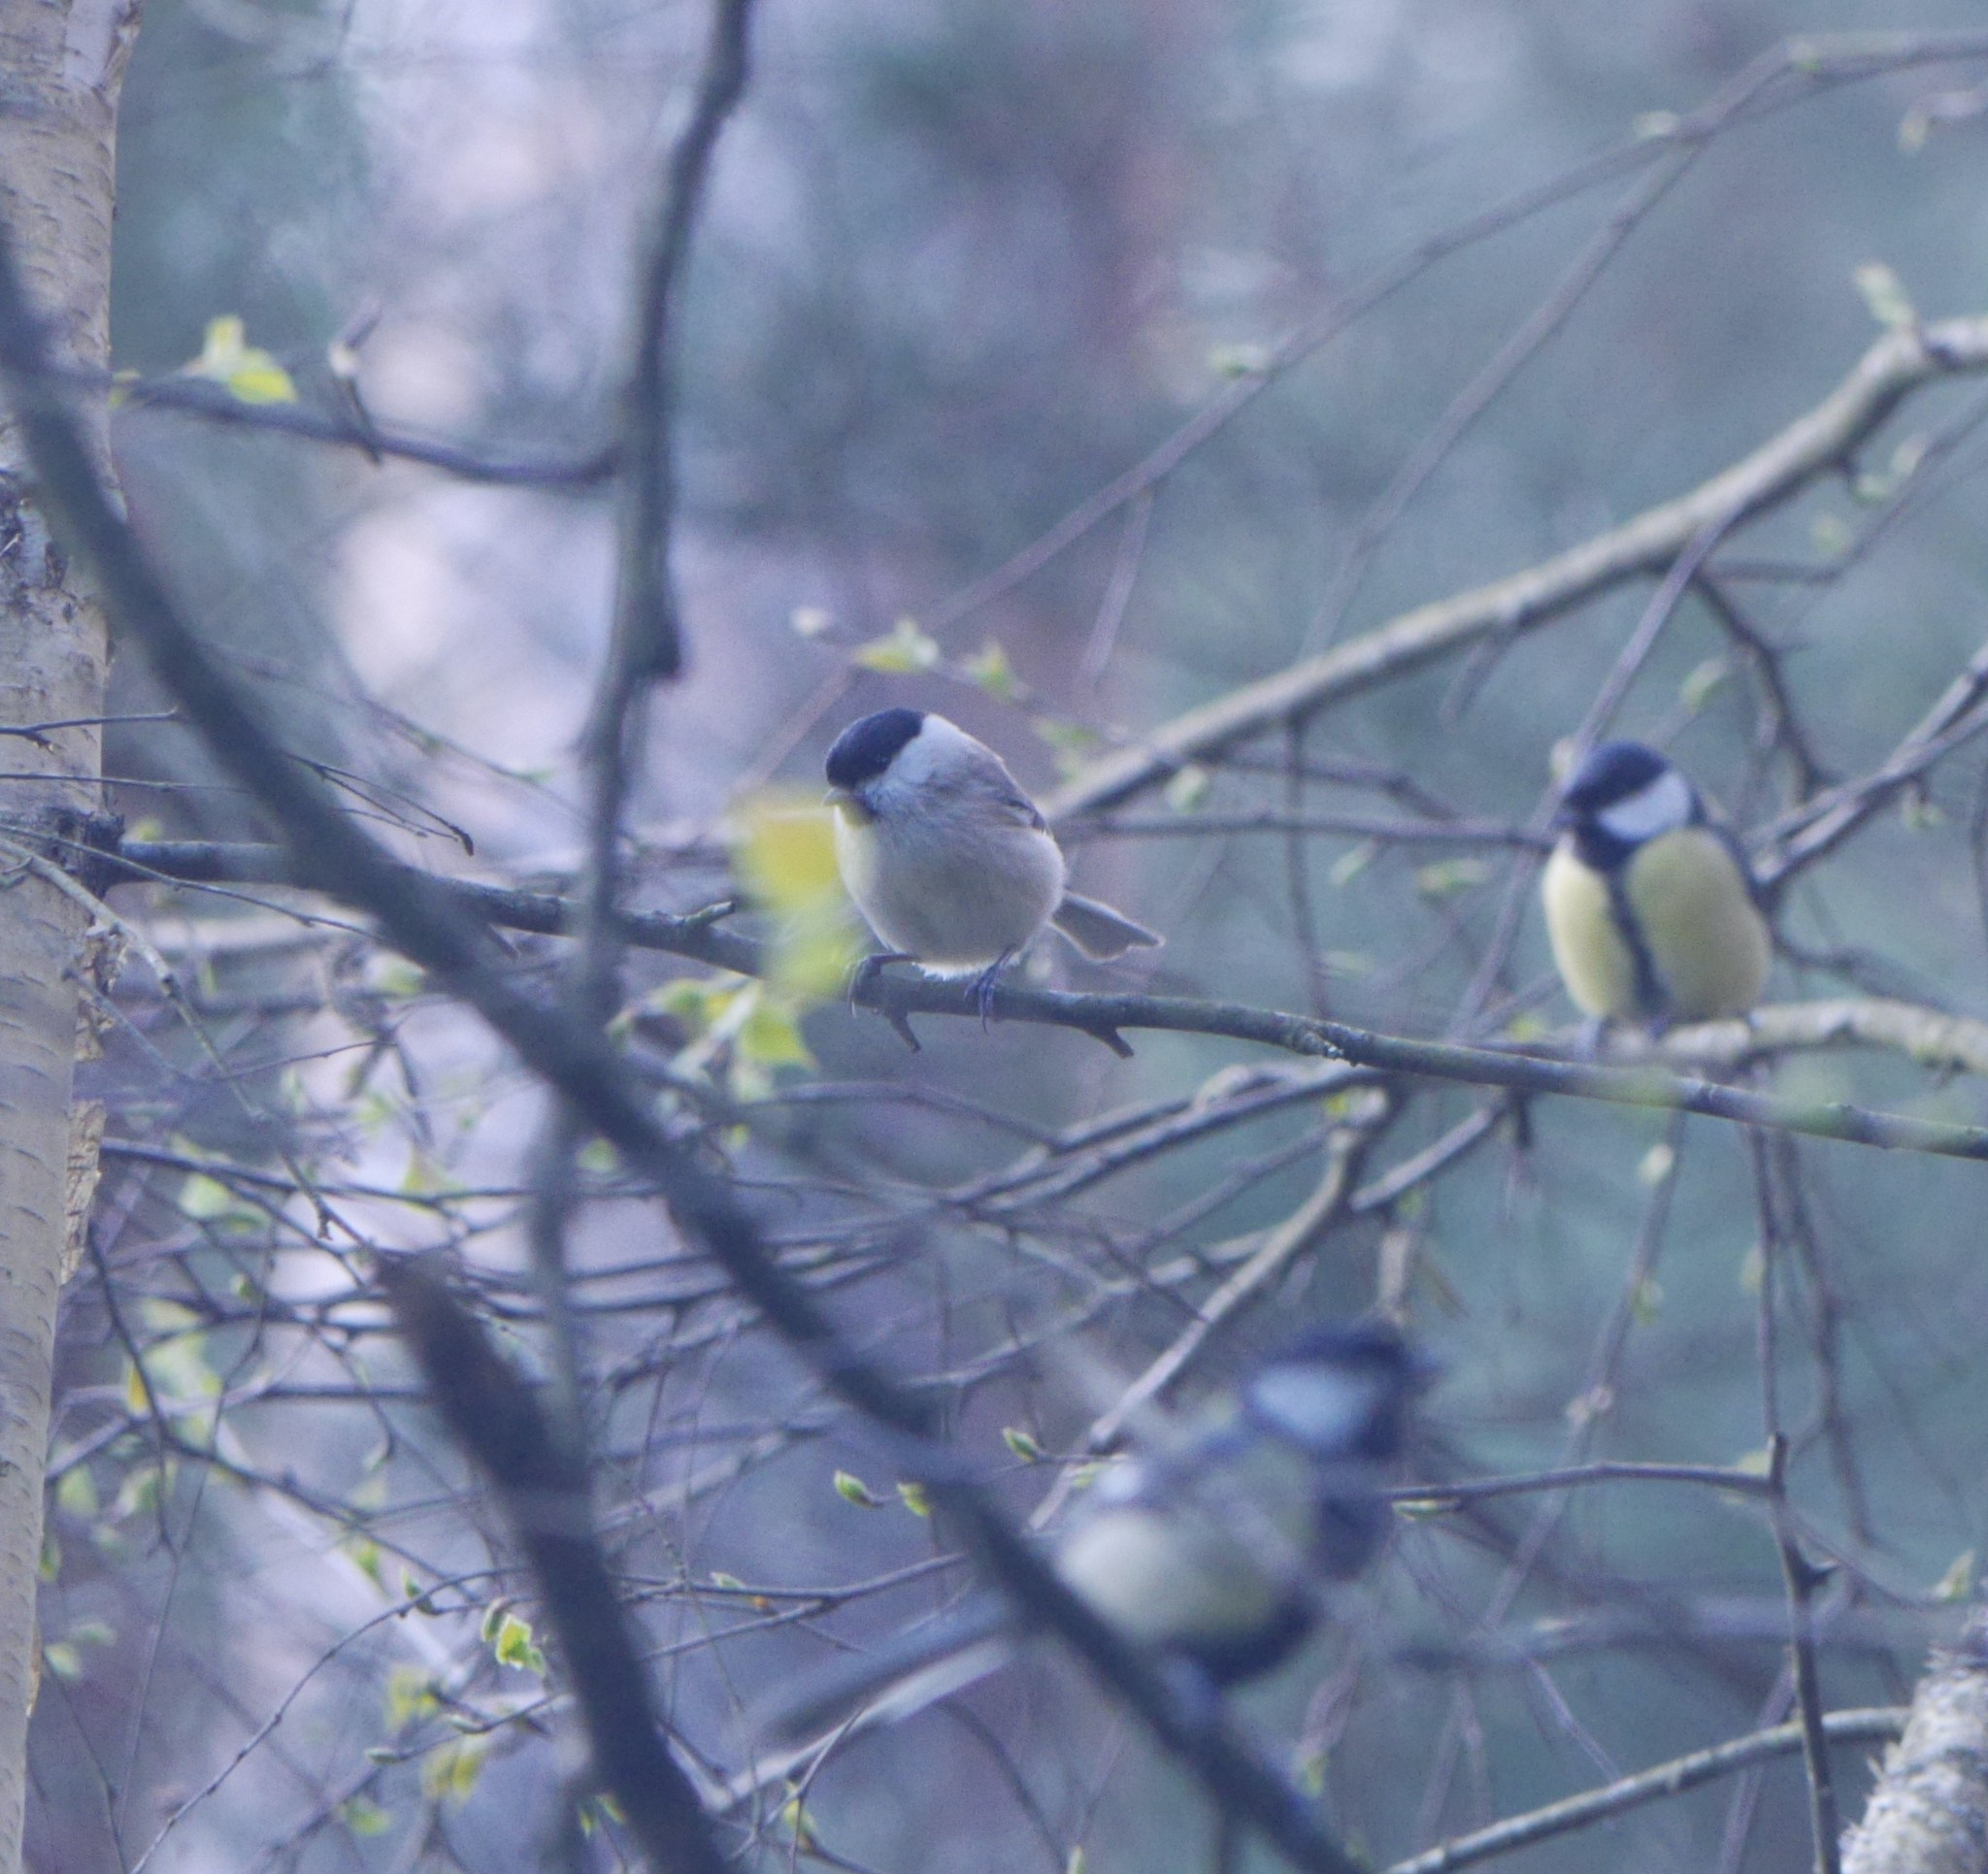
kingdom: Animalia
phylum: Chordata
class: Aves
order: Passeriformes
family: Paridae
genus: Poecile
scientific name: Poecile palustris
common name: Marsh tit
